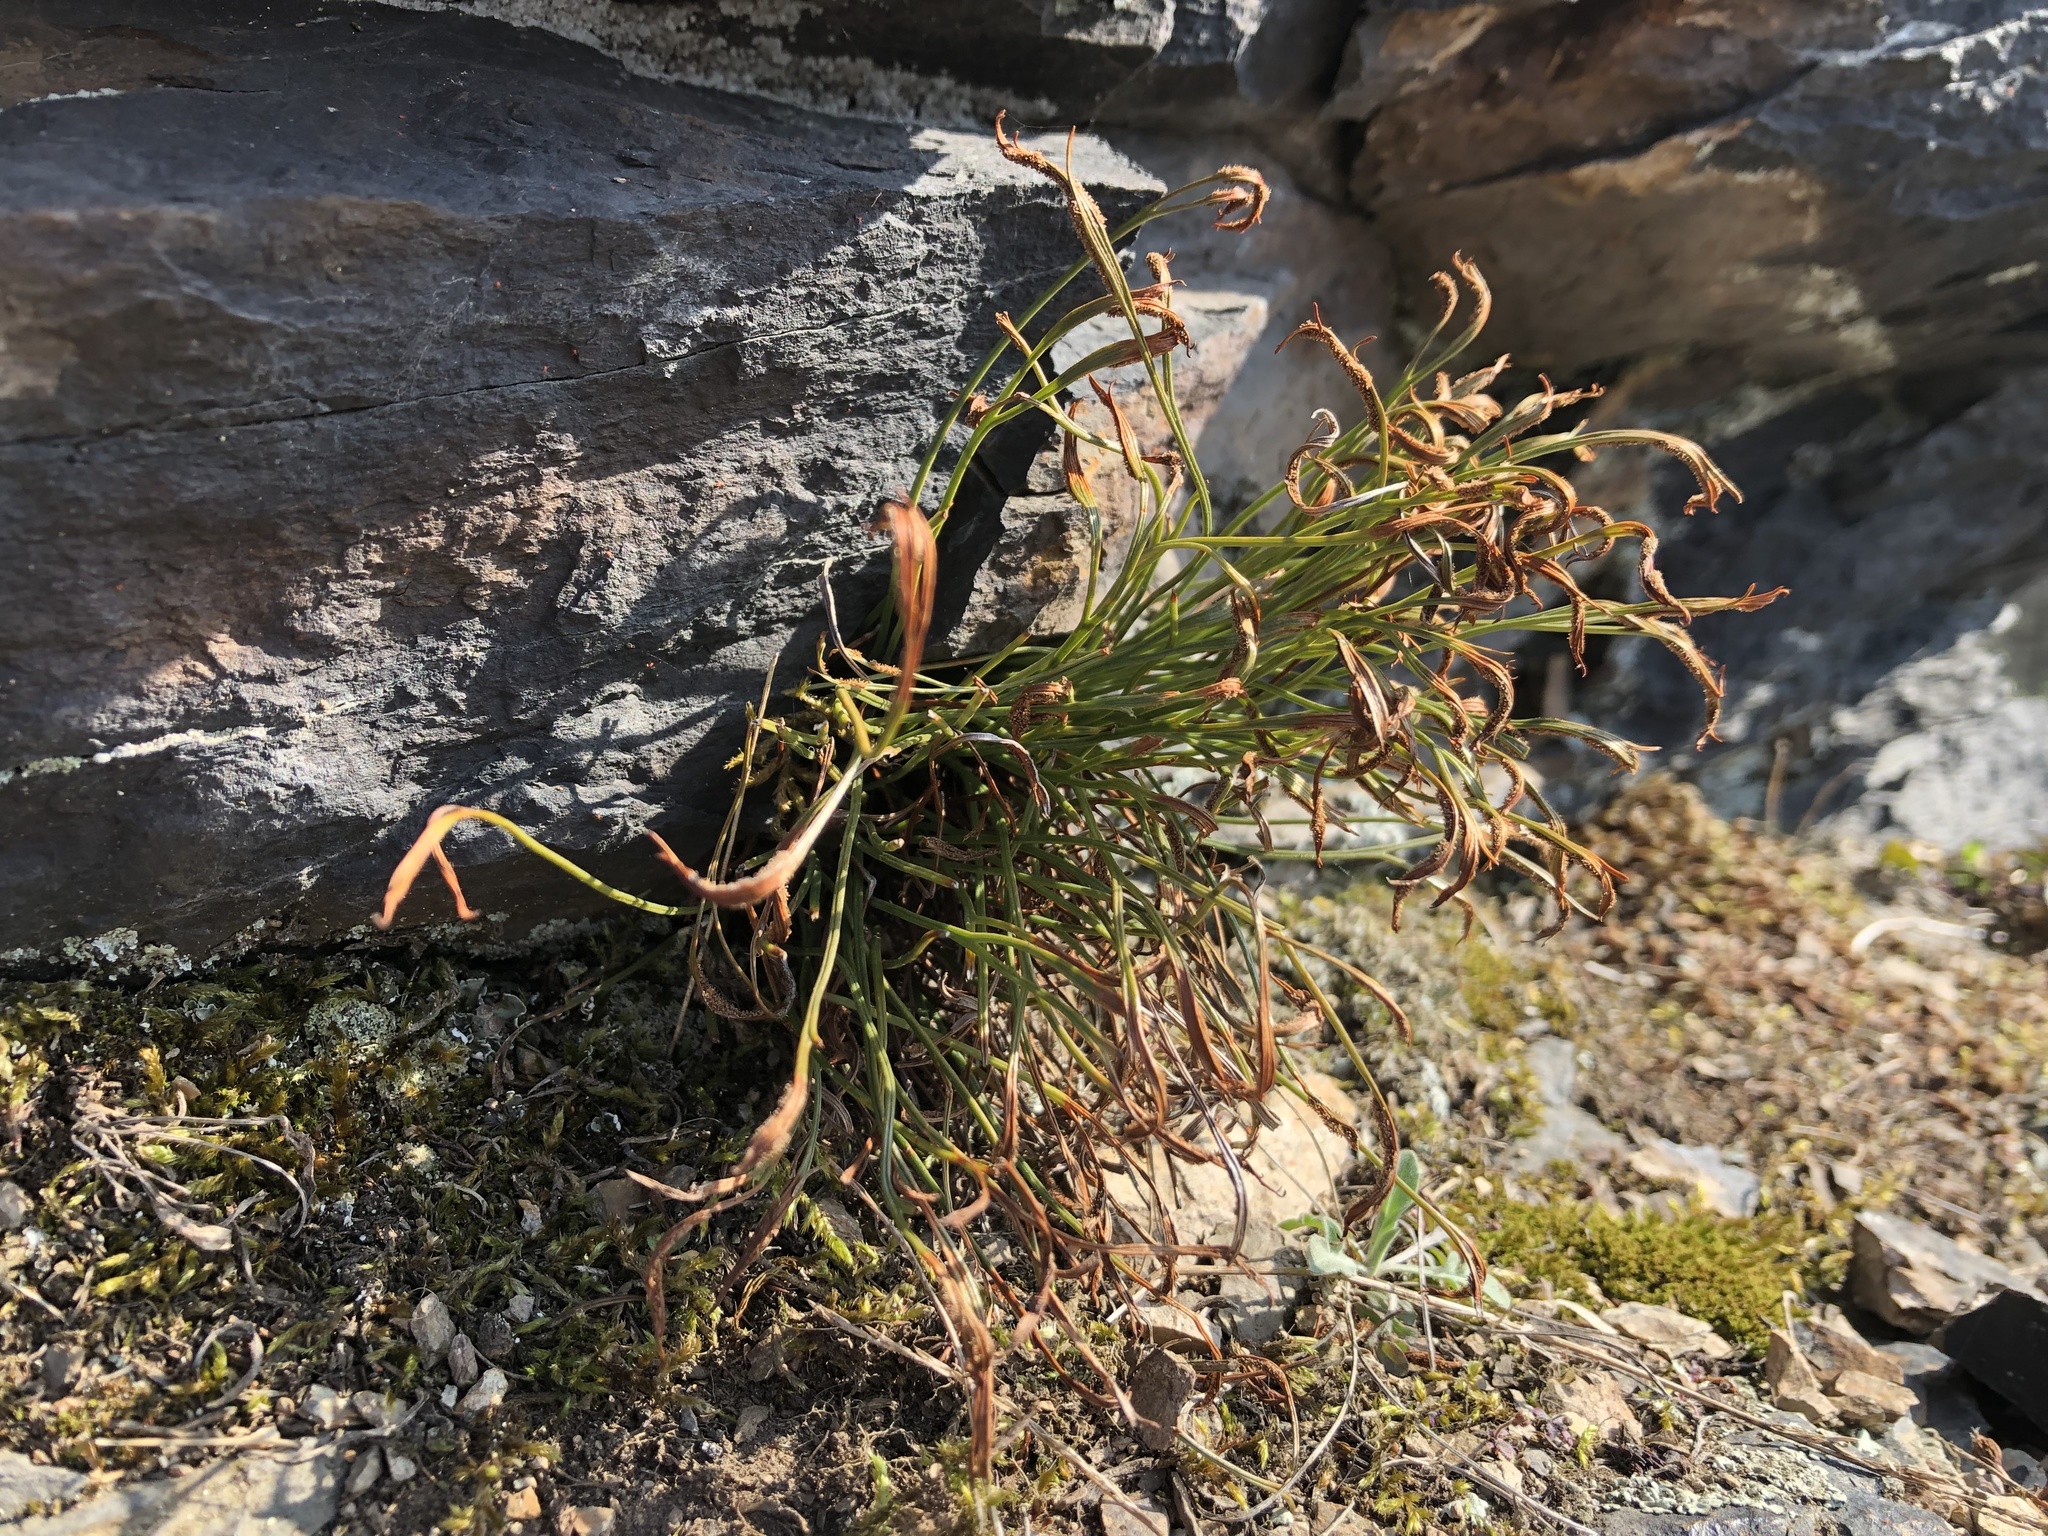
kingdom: Plantae
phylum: Tracheophyta
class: Polypodiopsida
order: Polypodiales
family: Aspleniaceae
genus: Asplenium
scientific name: Asplenium septentrionale
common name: Forked spleenwort
